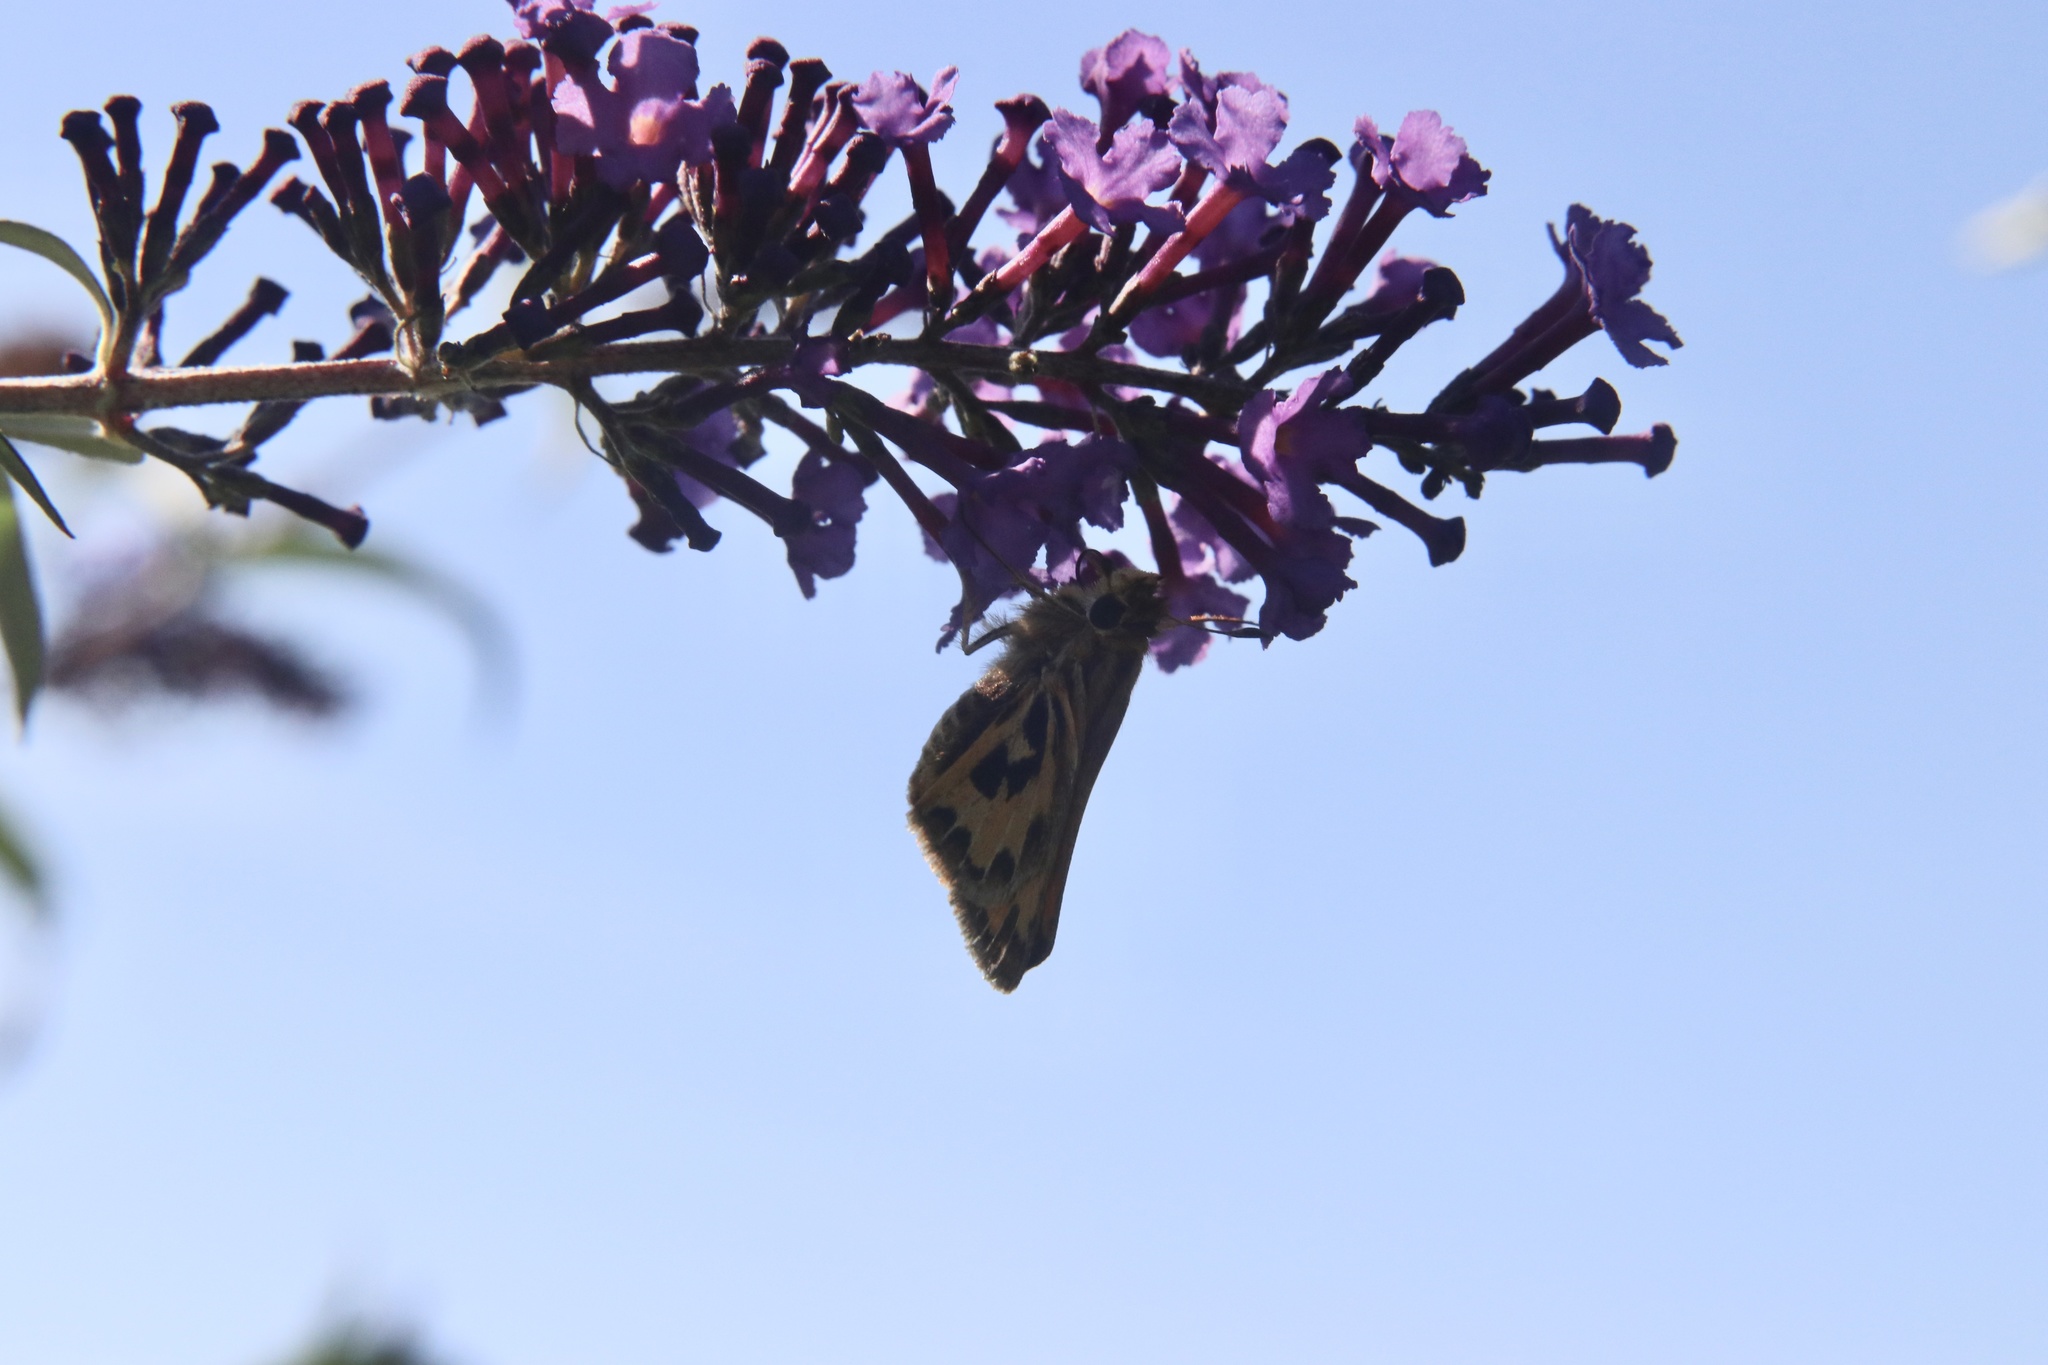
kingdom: Animalia
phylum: Arthropoda
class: Insecta
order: Lepidoptera
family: Hesperiidae
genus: Hylephila
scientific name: Hylephila fasciolata
